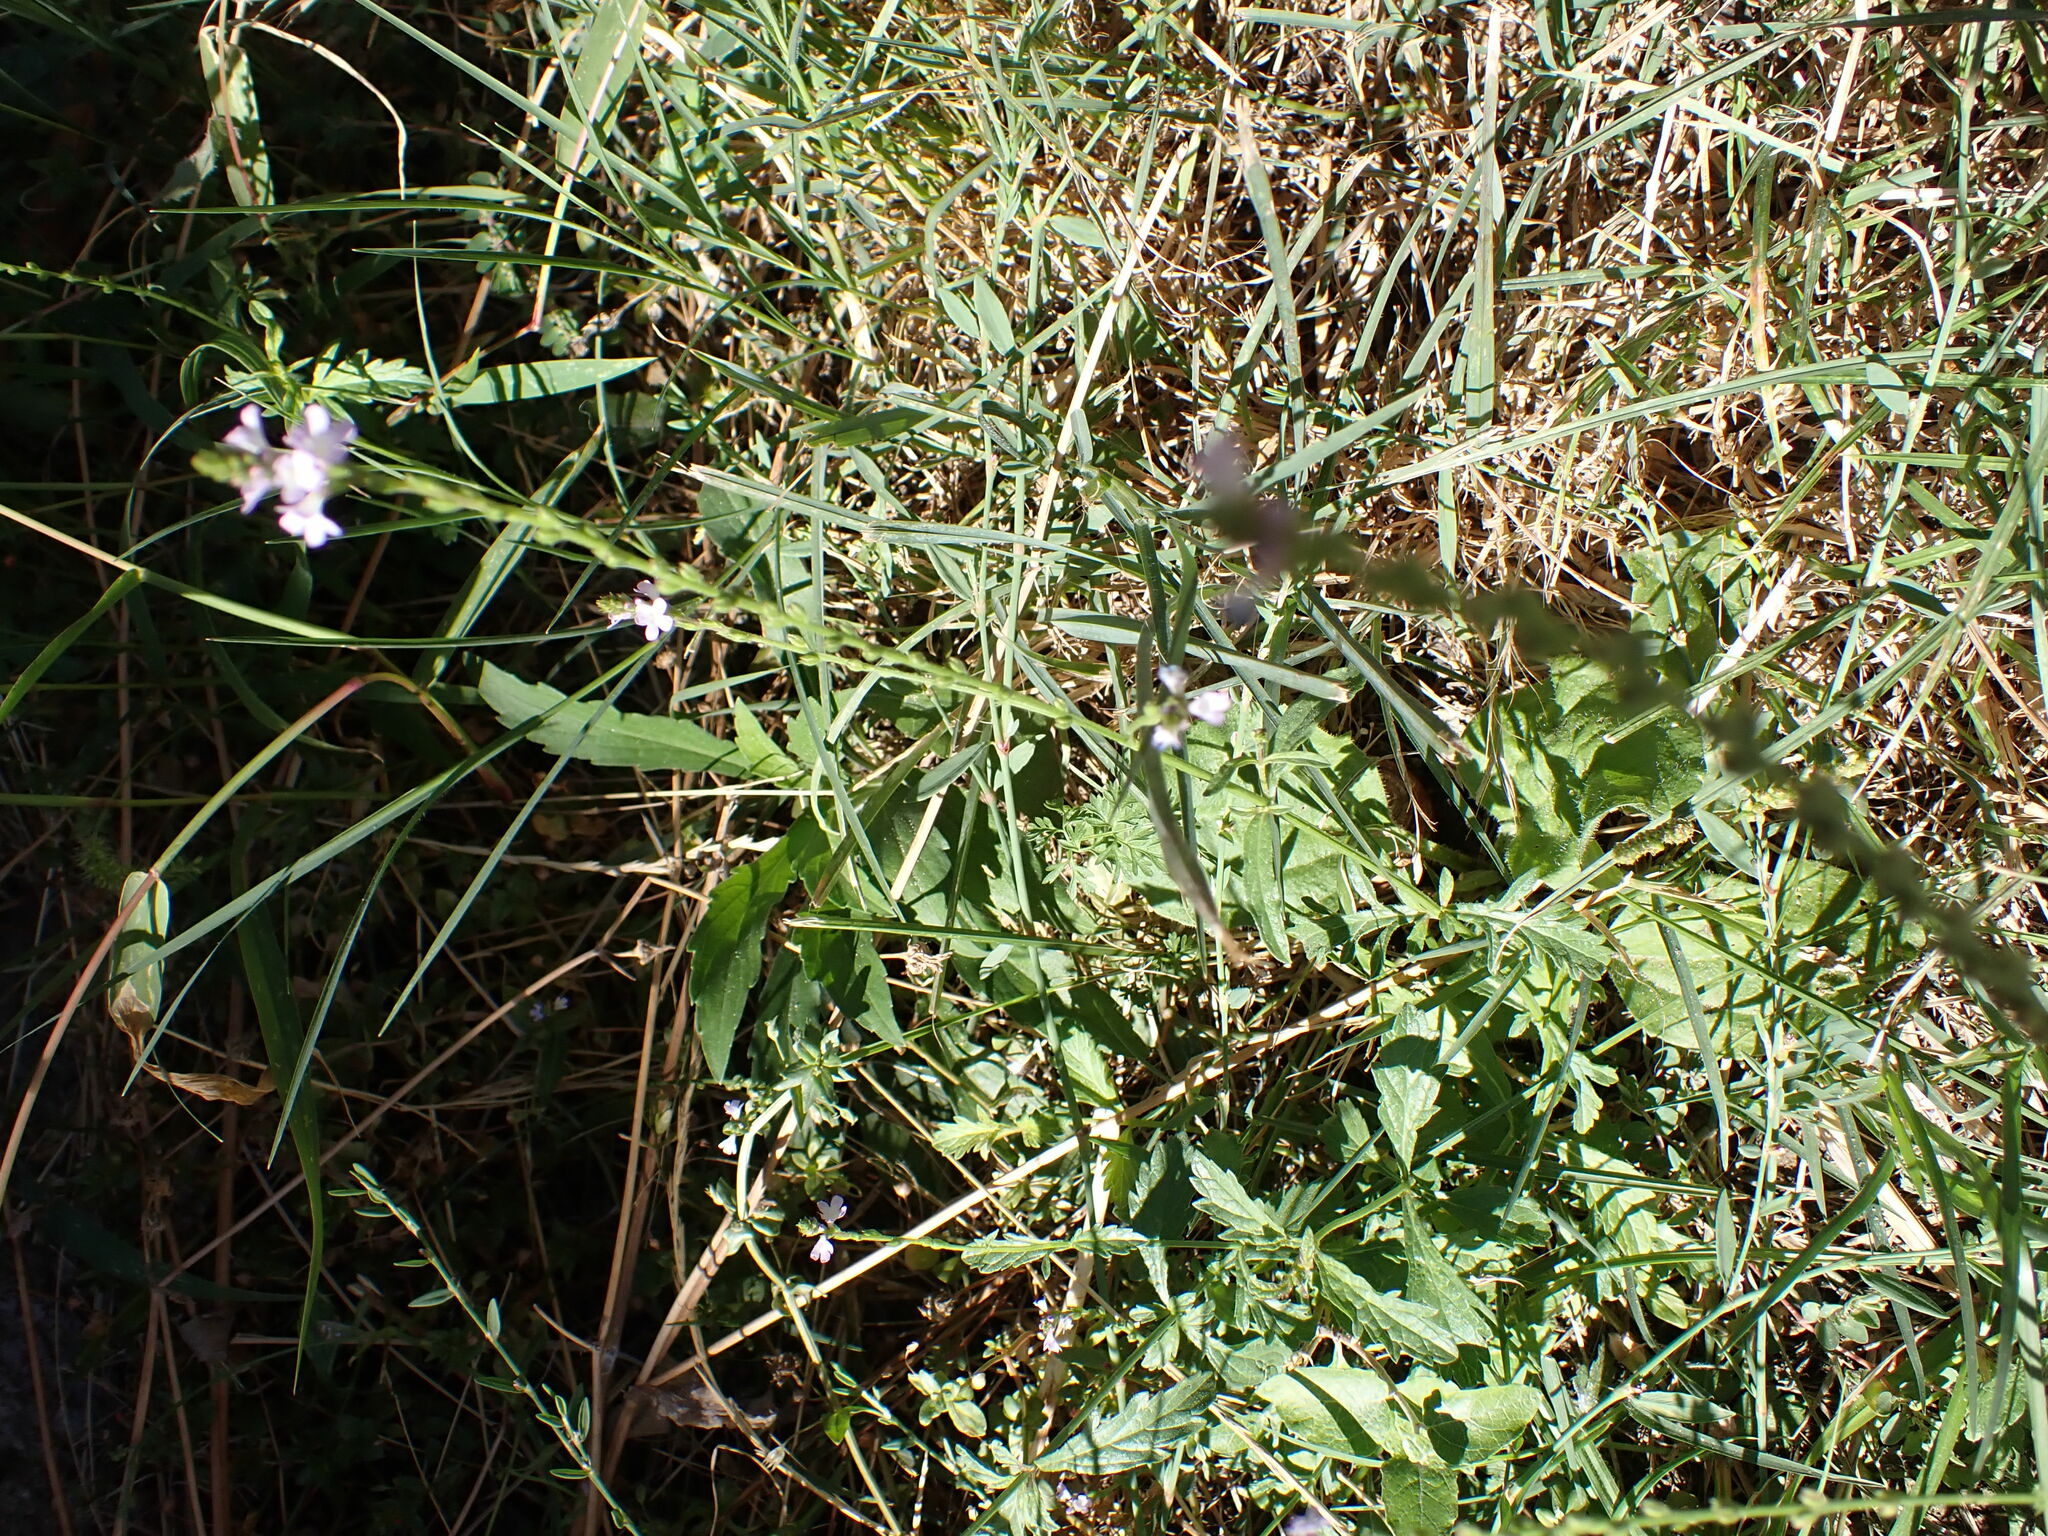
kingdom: Plantae
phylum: Tracheophyta
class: Magnoliopsida
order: Lamiales
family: Verbenaceae
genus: Verbena
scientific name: Verbena officinalis
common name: Vervain
